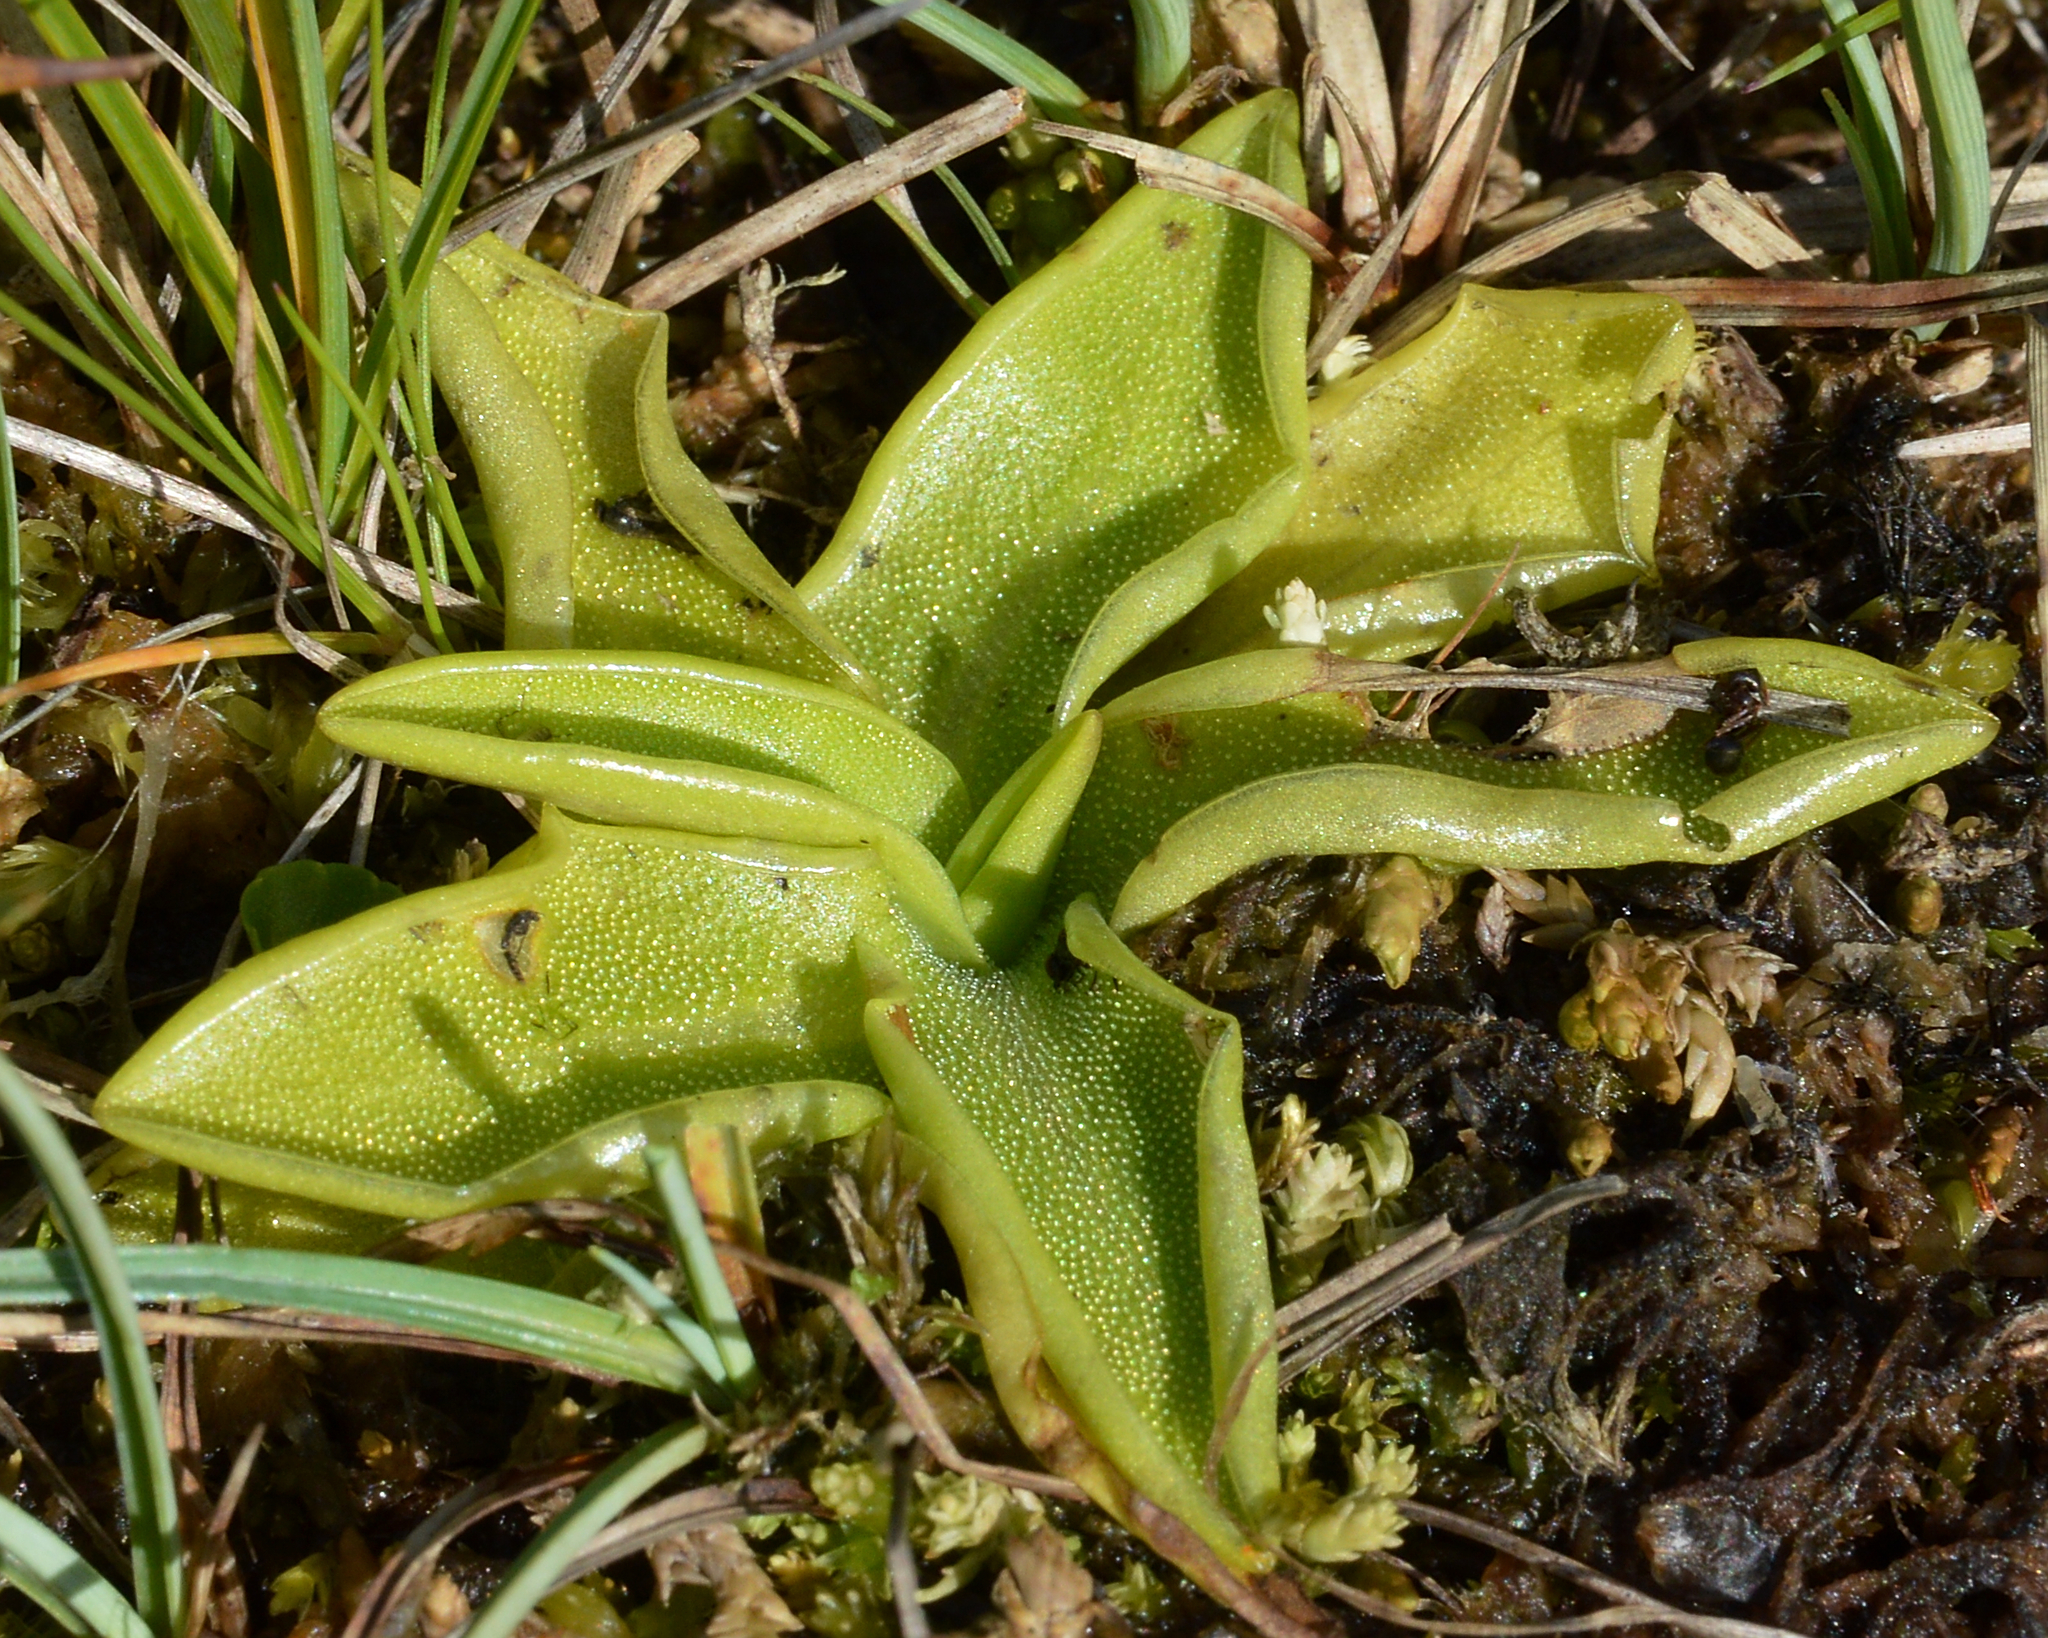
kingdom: Plantae
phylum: Tracheophyta
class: Magnoliopsida
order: Lamiales
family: Lentibulariaceae
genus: Pinguicula
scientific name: Pinguicula vulgaris
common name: Common butterwort
